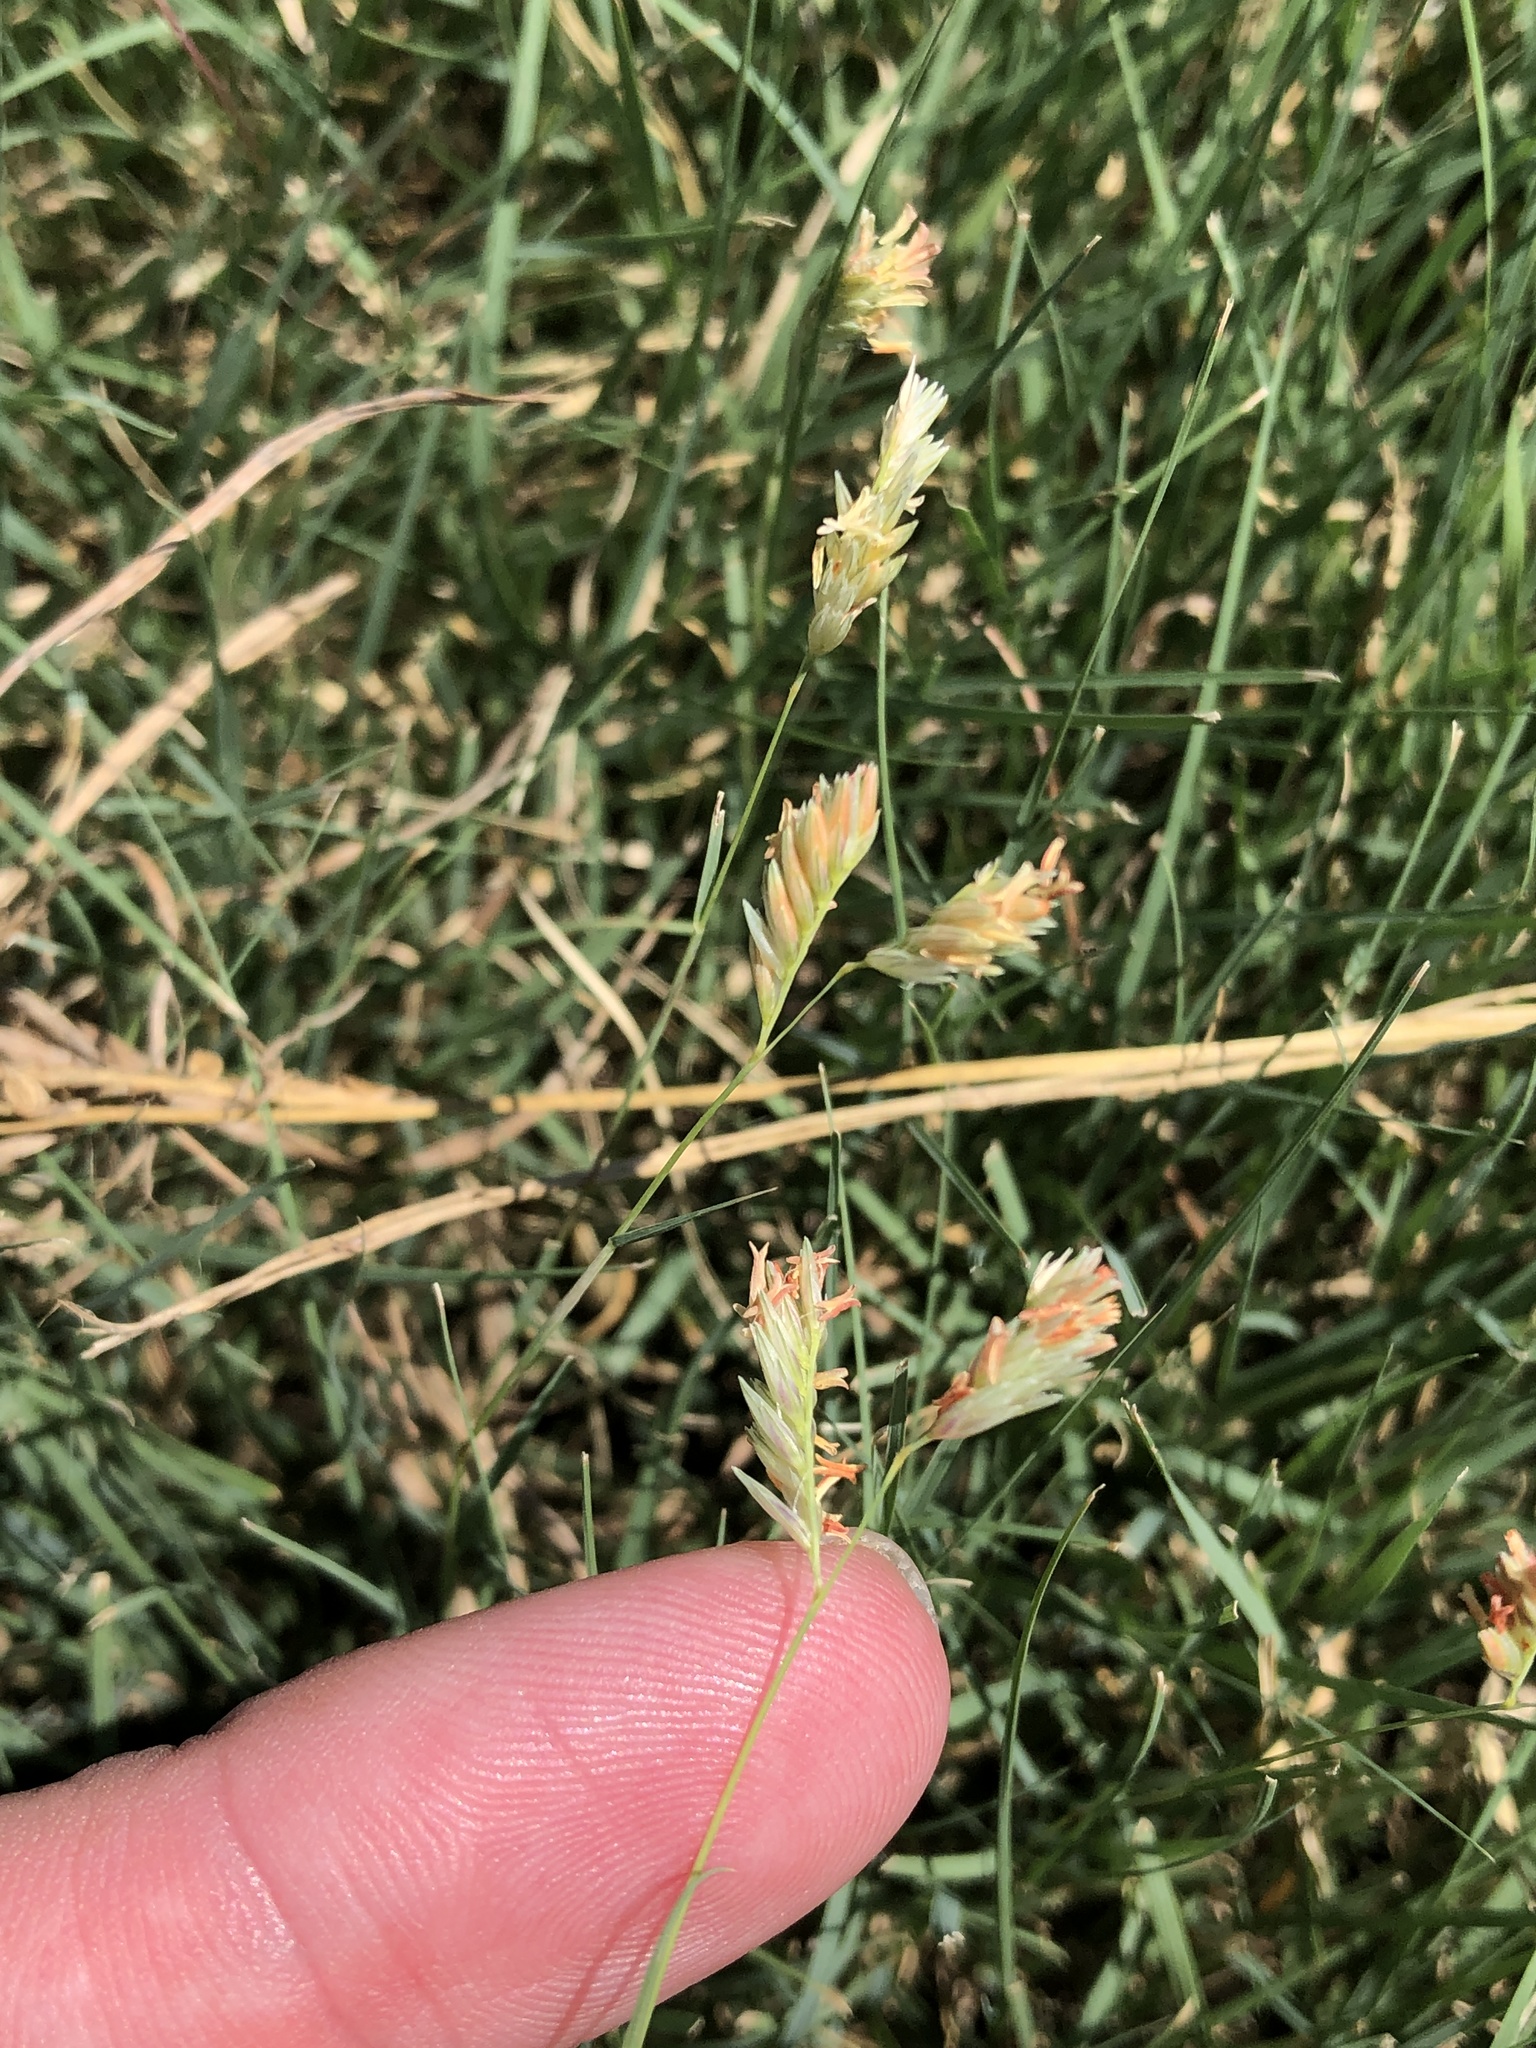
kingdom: Plantae
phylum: Tracheophyta
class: Liliopsida
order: Poales
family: Poaceae
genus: Bouteloua
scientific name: Bouteloua dactyloides
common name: Buffalo grass
